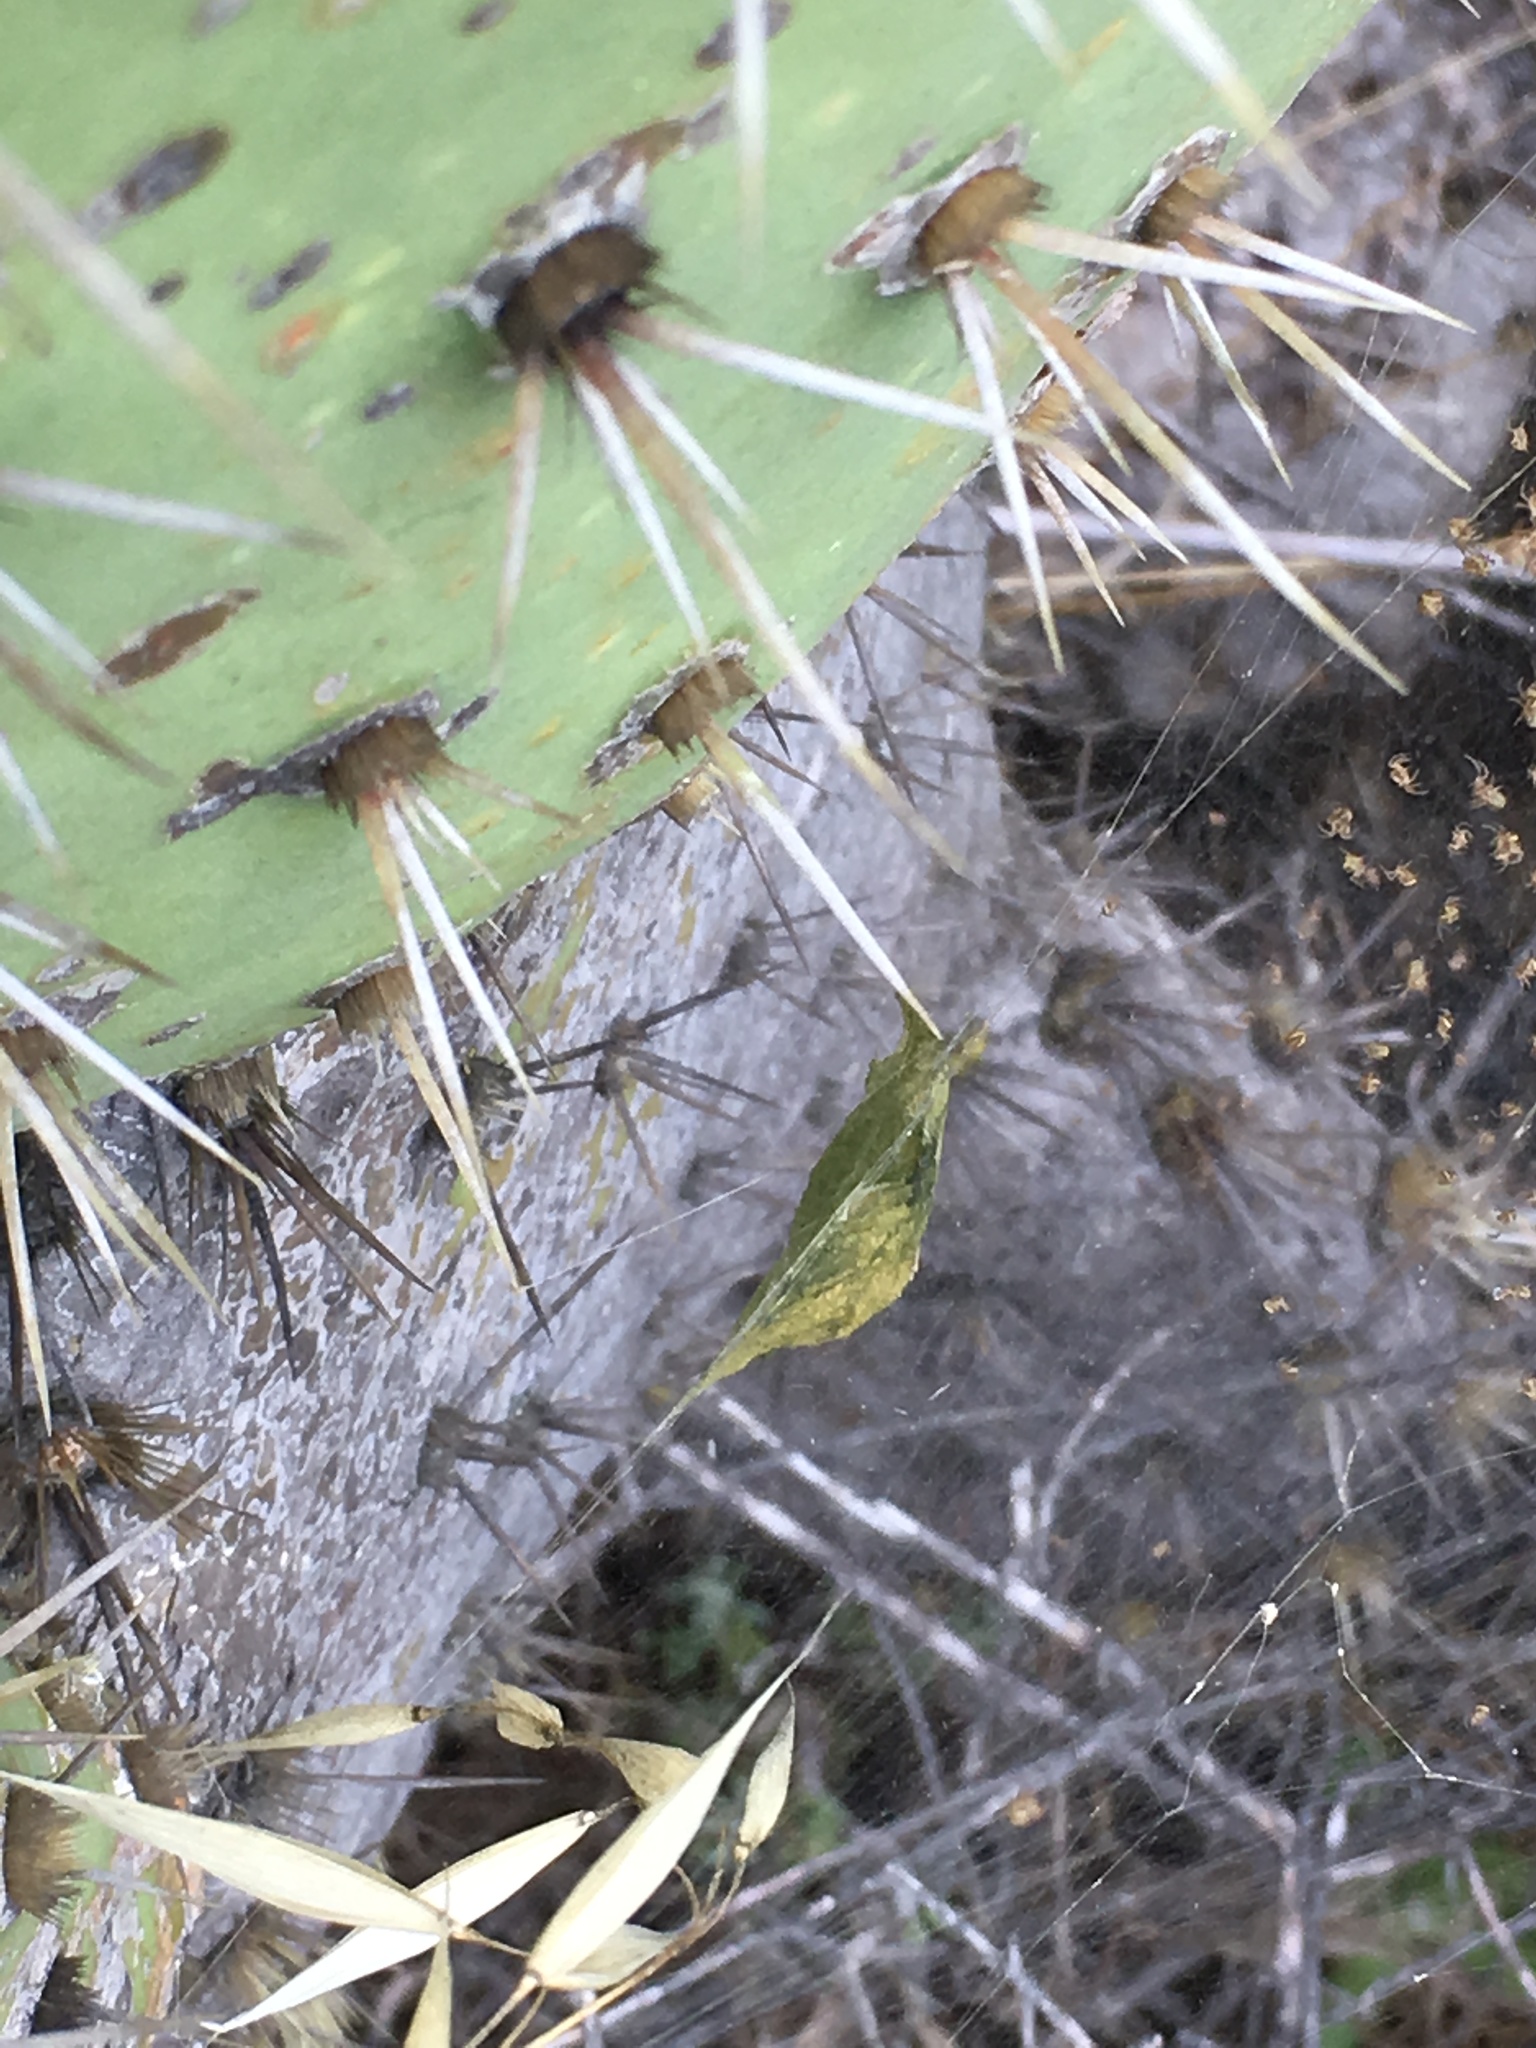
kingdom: Animalia
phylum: Arthropoda
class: Arachnida
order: Araneae
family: Araneidae
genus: Argiope
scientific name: Argiope argentata
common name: Orb weavers
